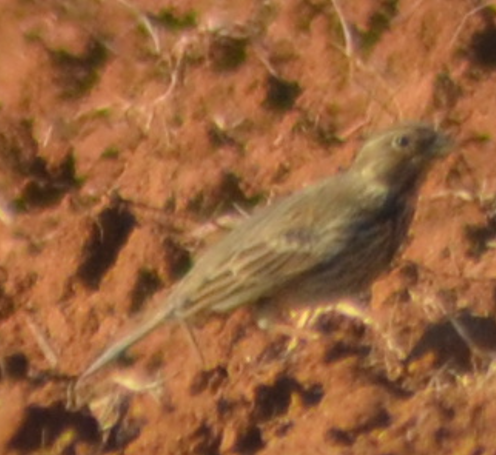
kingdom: Animalia
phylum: Chordata
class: Aves
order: Passeriformes
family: Emberizidae
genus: Emberiza
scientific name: Emberiza calandra
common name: Corn bunting
